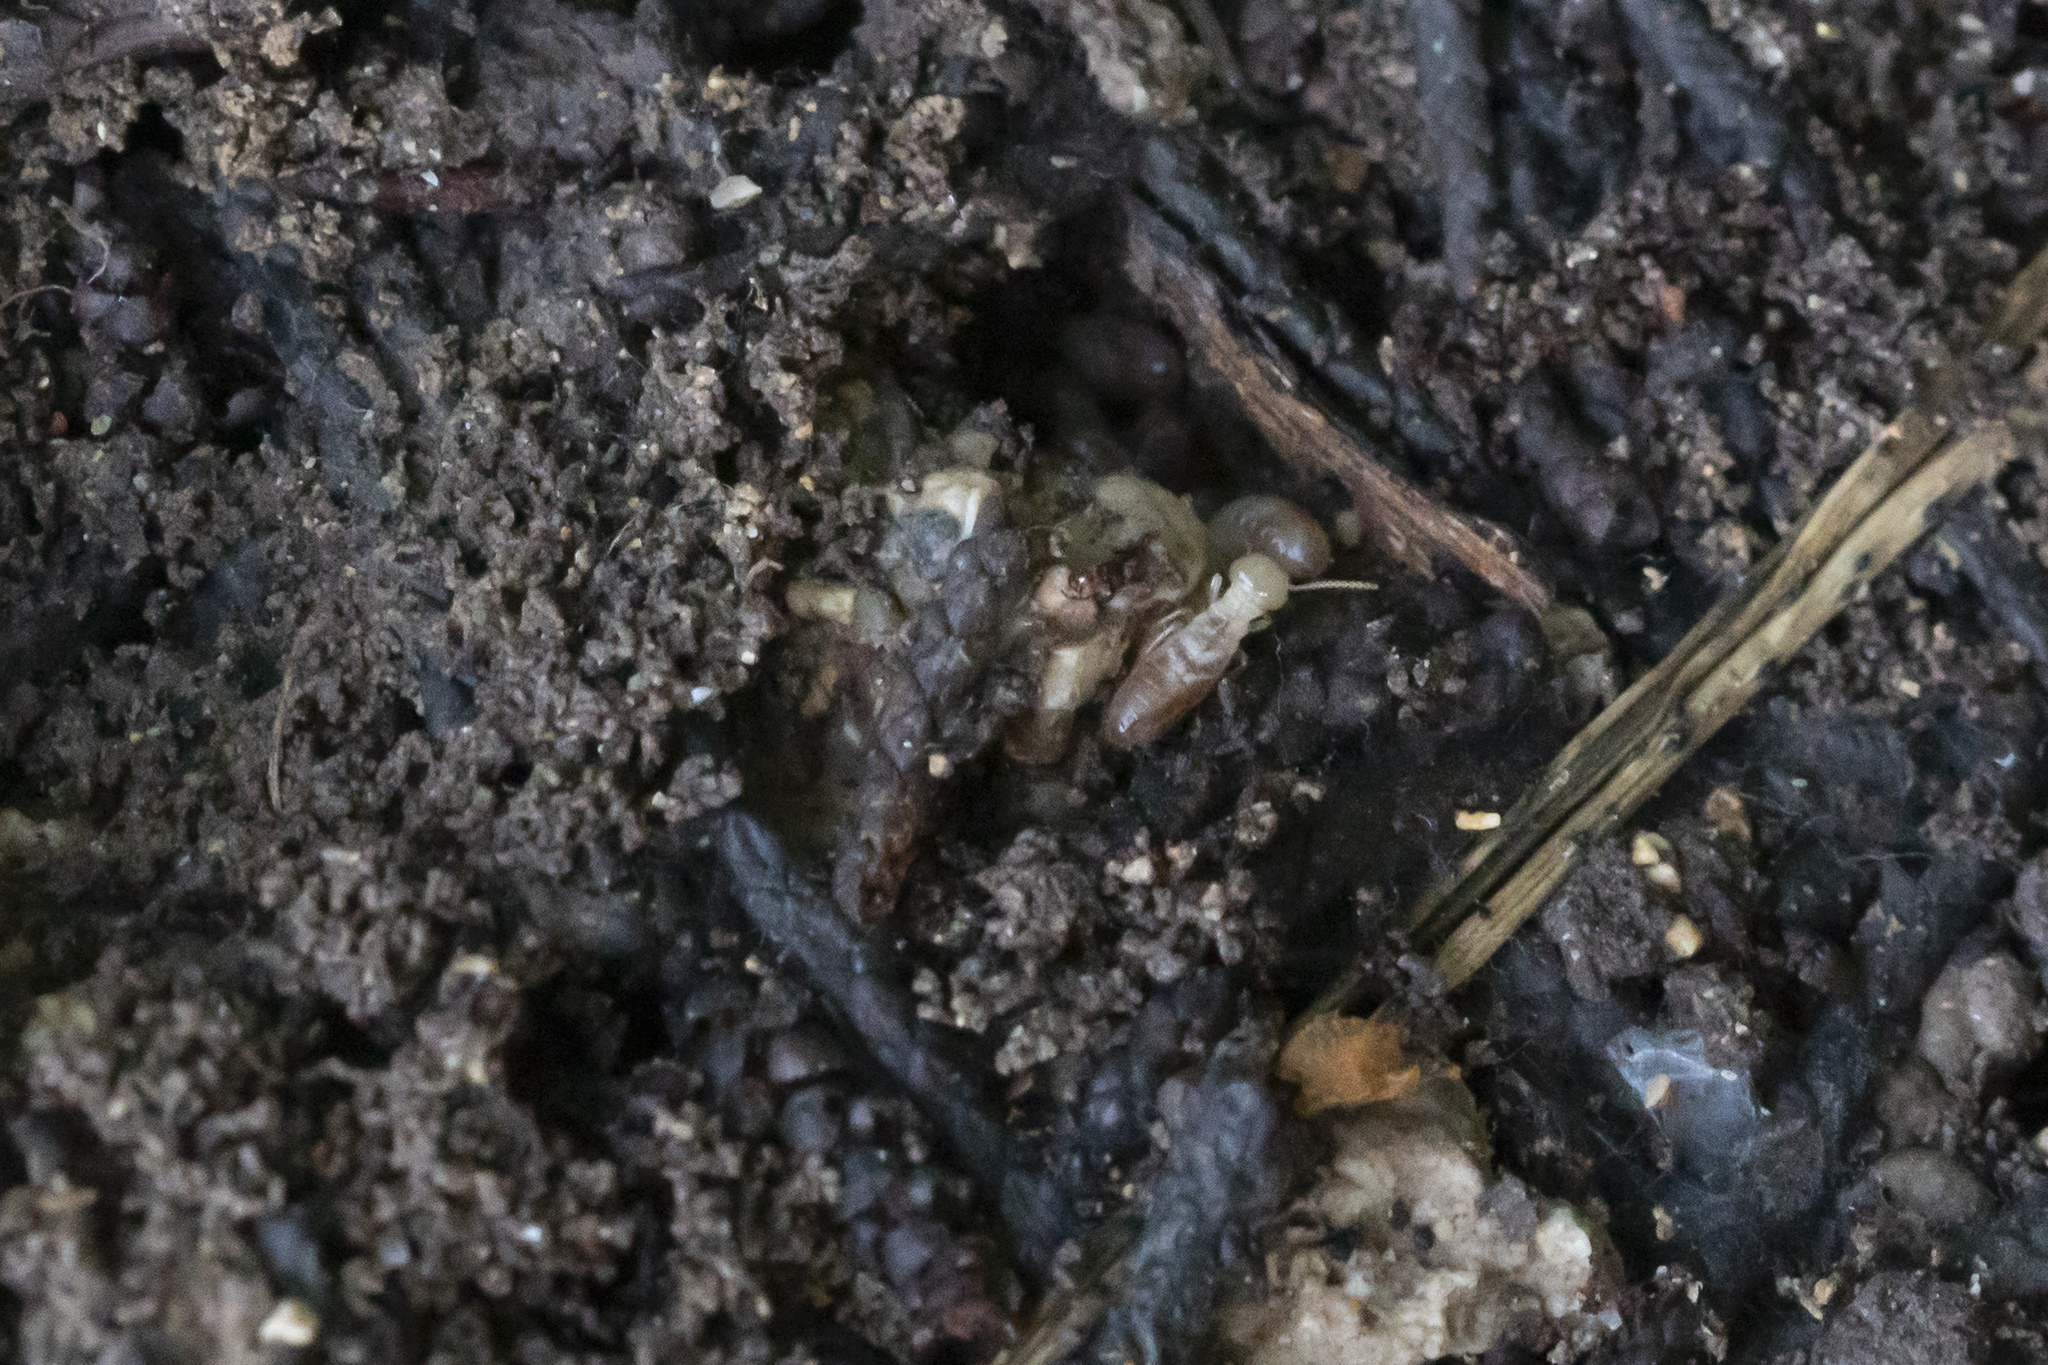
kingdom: Animalia
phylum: Arthropoda
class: Insecta
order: Blattodea
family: Rhinotermitidae
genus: Reticulitermes
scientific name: Reticulitermes
